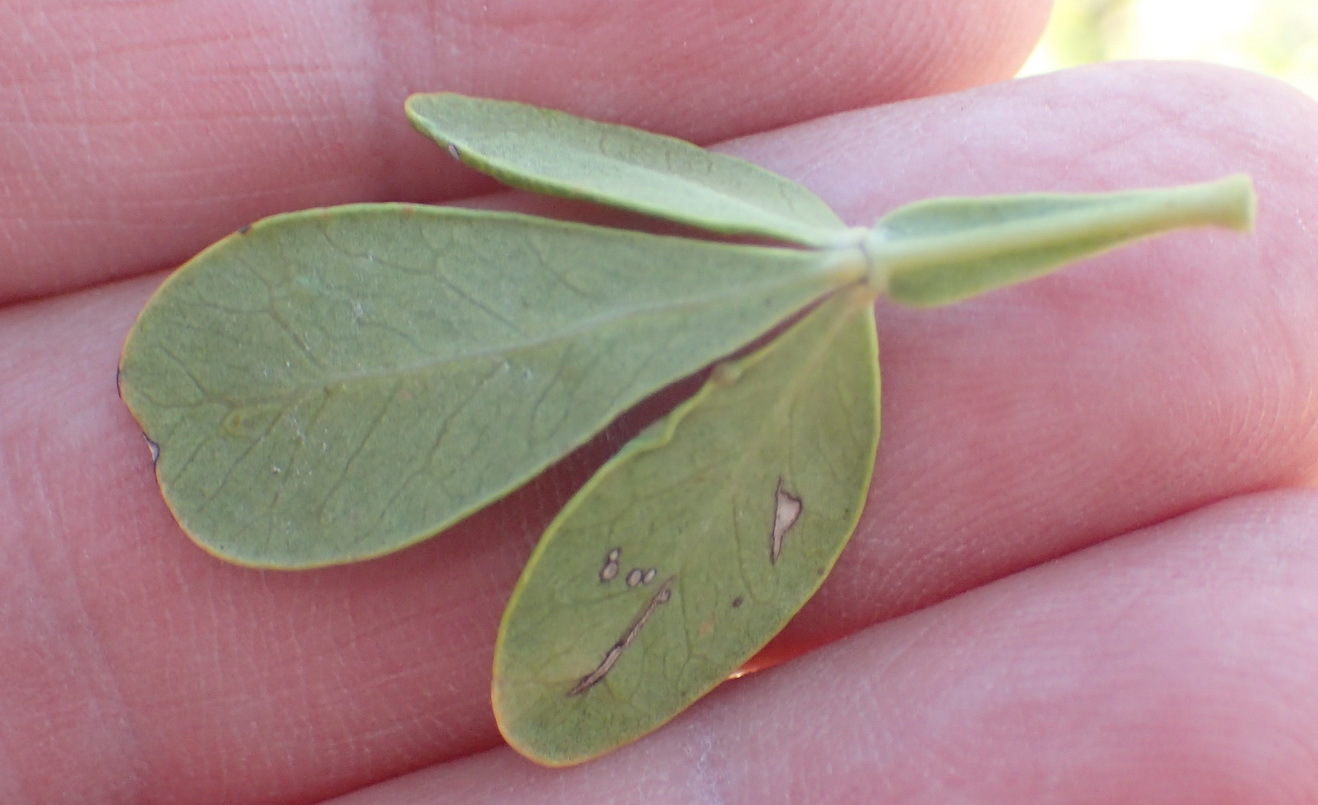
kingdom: Plantae
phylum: Tracheophyta
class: Magnoliopsida
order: Sapindales
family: Anacardiaceae
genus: Searsia
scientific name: Searsia pterota
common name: Winged currant
